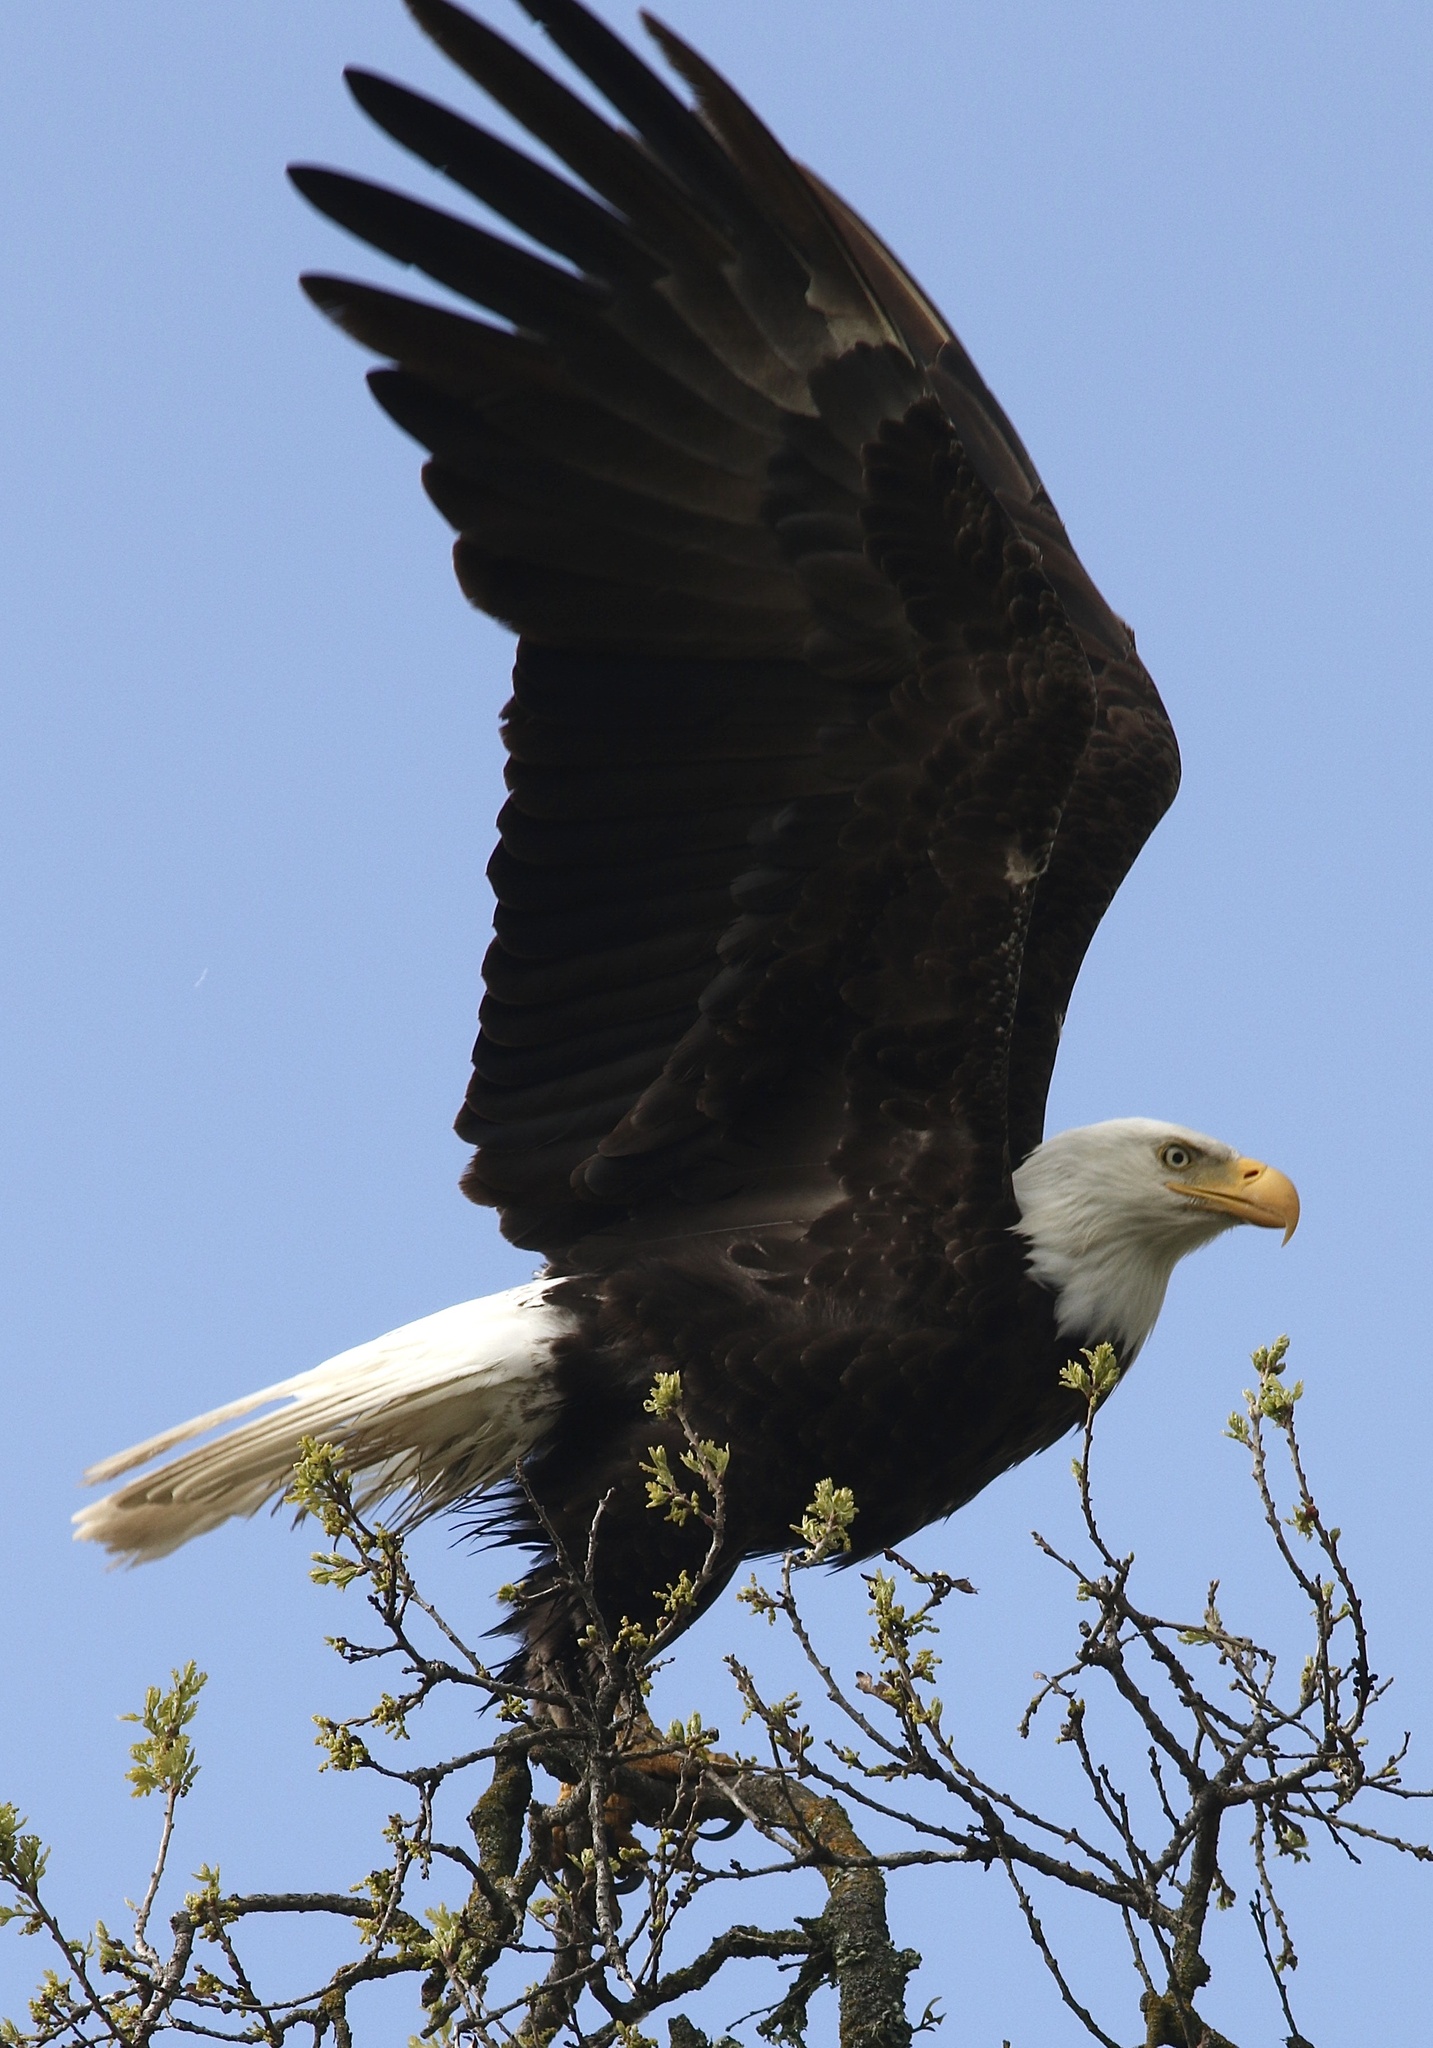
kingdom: Animalia
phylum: Chordata
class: Aves
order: Accipitriformes
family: Accipitridae
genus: Haliaeetus
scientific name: Haliaeetus leucocephalus
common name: Bald eagle
